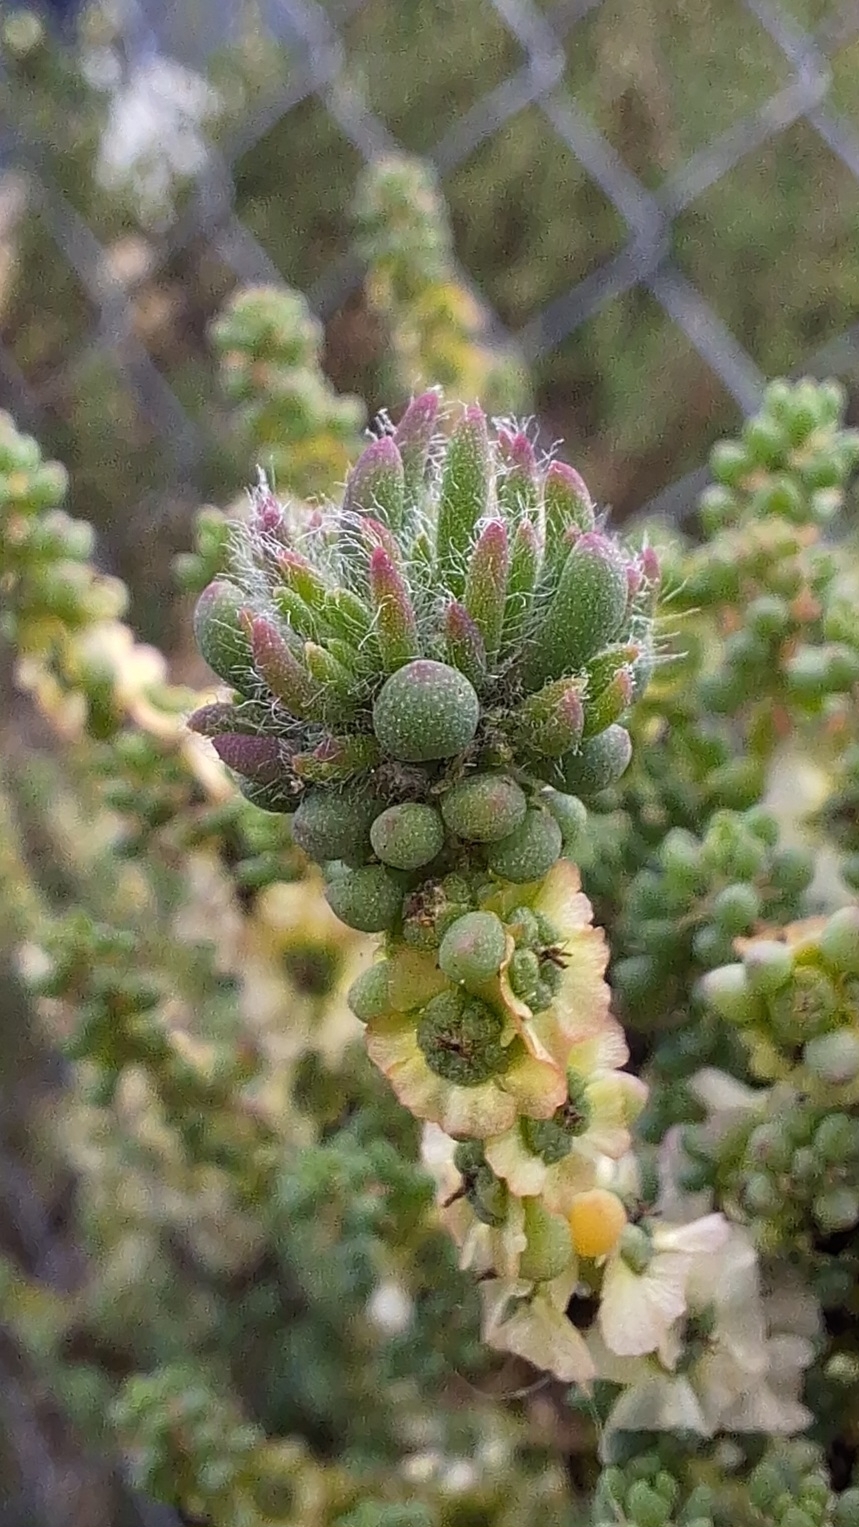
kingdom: Animalia
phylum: Arthropoda
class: Insecta
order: Diptera
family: Cecidomyiidae
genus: Dactylasioptera
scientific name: Dactylasioptera milnae
